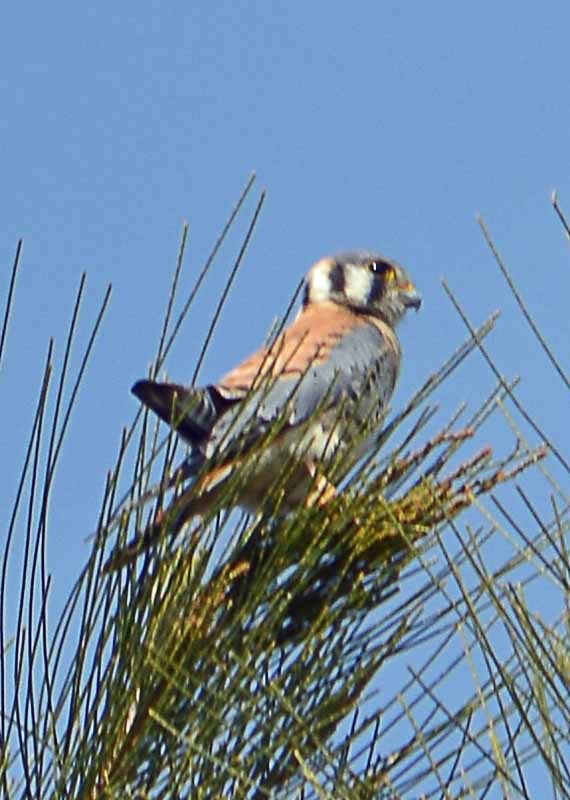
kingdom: Animalia
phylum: Chordata
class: Aves
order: Falconiformes
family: Falconidae
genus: Falco
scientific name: Falco sparverius
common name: American kestrel
